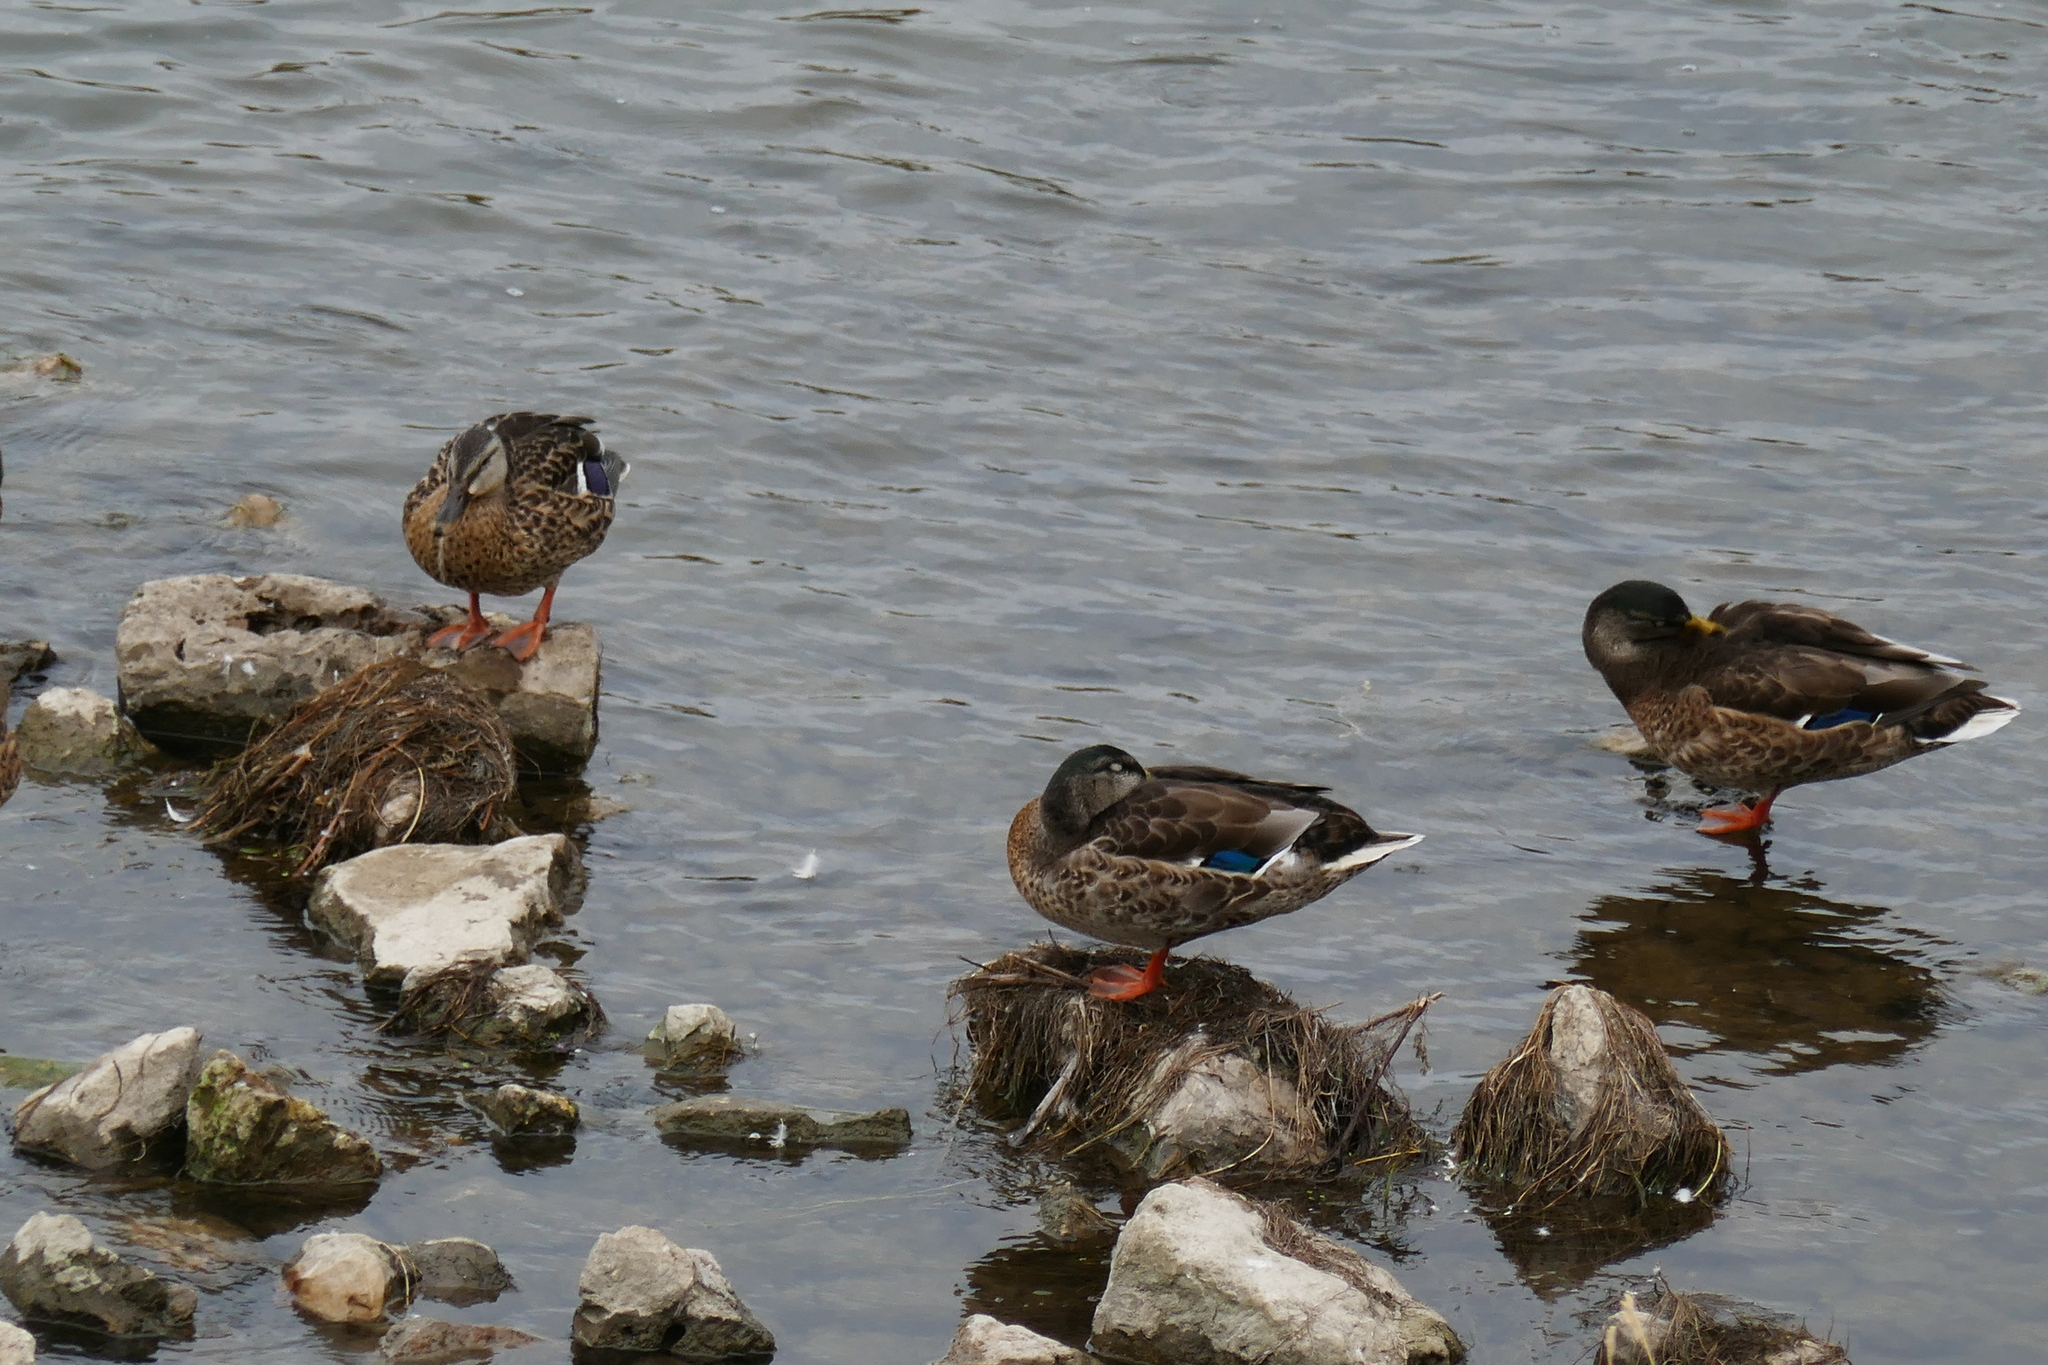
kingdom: Animalia
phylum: Chordata
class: Aves
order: Anseriformes
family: Anatidae
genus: Anas
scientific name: Anas platyrhynchos
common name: Mallard
